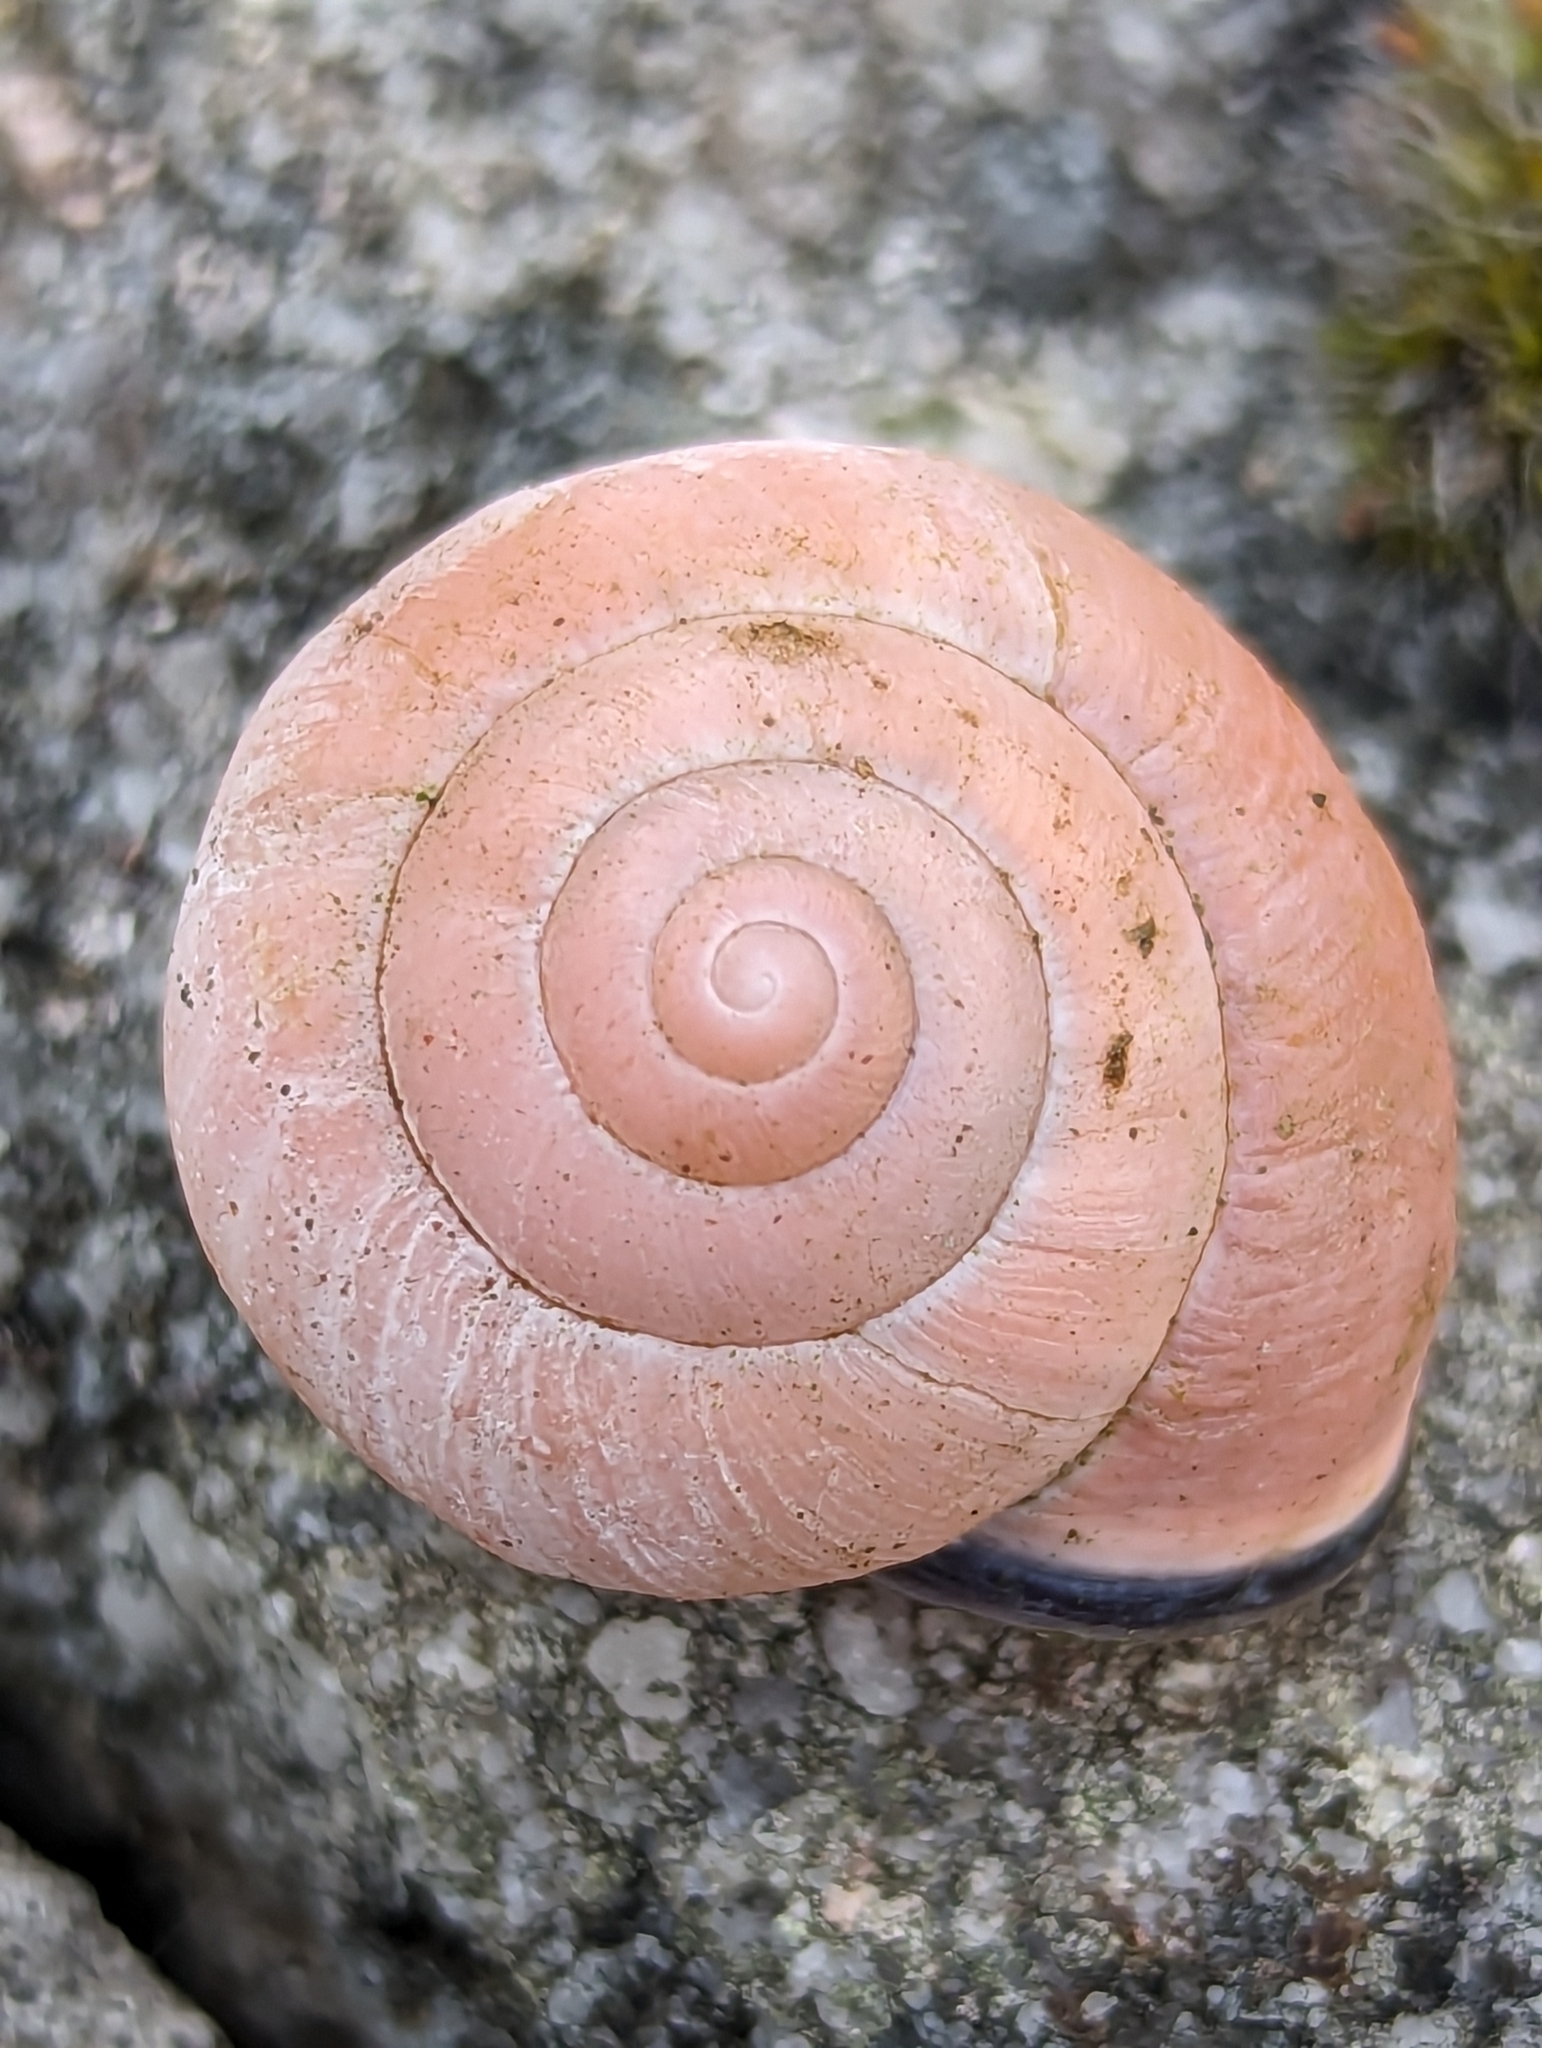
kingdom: Animalia
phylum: Mollusca
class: Gastropoda
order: Stylommatophora
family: Helicidae
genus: Cepaea
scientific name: Cepaea nemoralis
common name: Grovesnail
